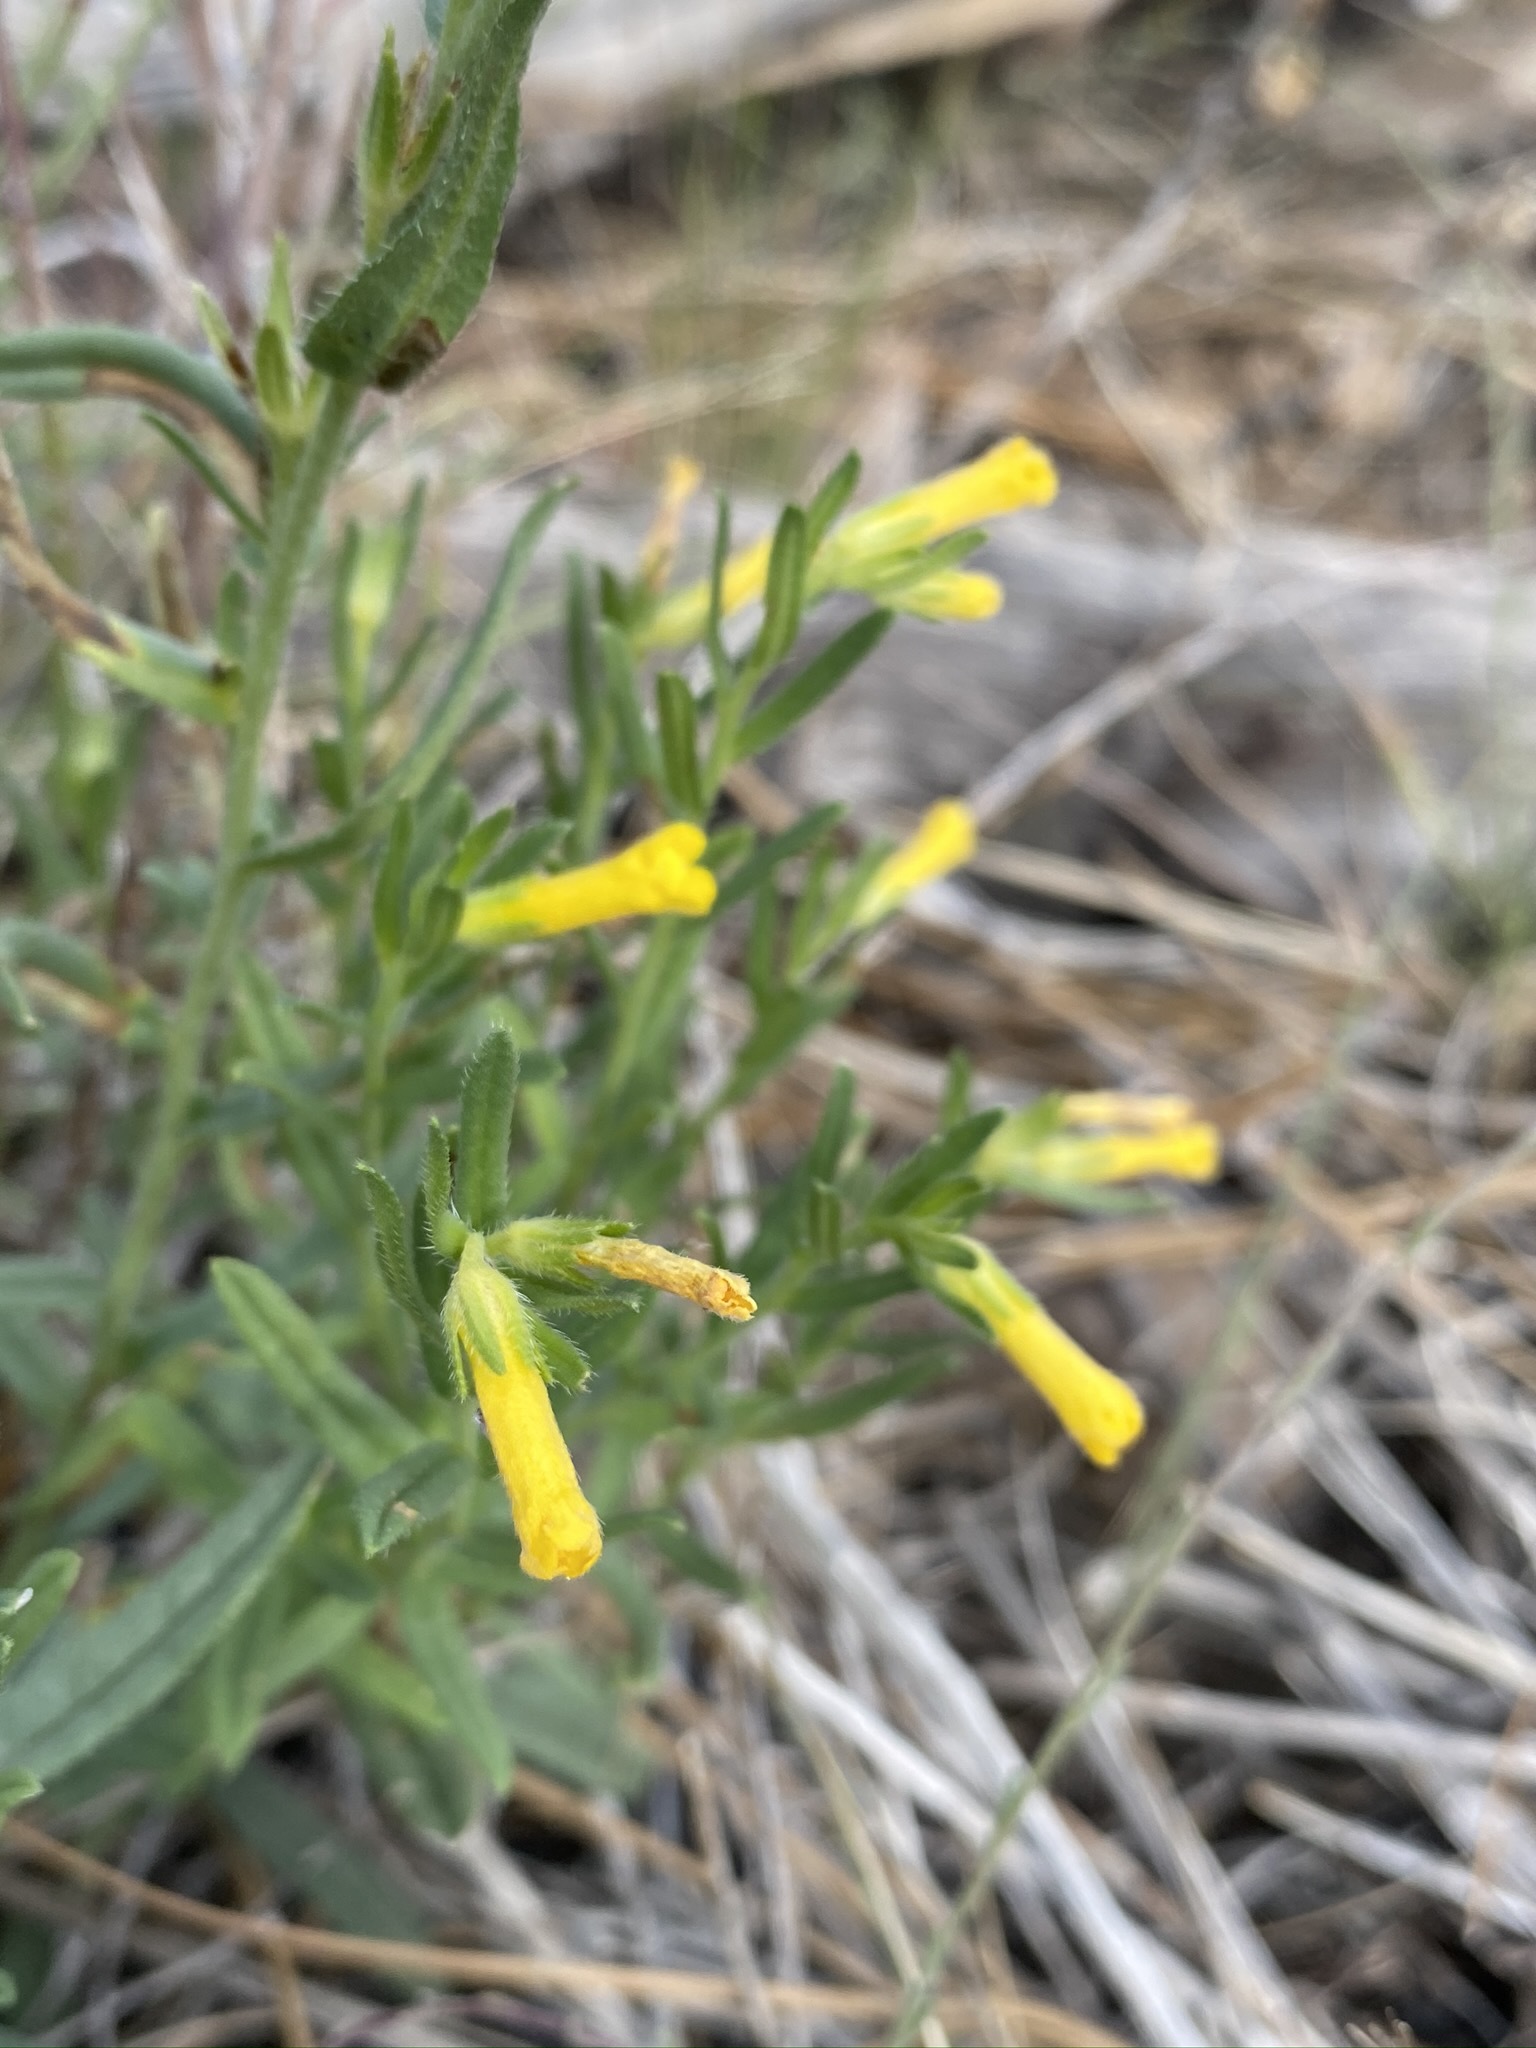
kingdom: Plantae
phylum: Tracheophyta
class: Magnoliopsida
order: Boraginales
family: Boraginaceae
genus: Lithospermum
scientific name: Lithospermum multiflorum
